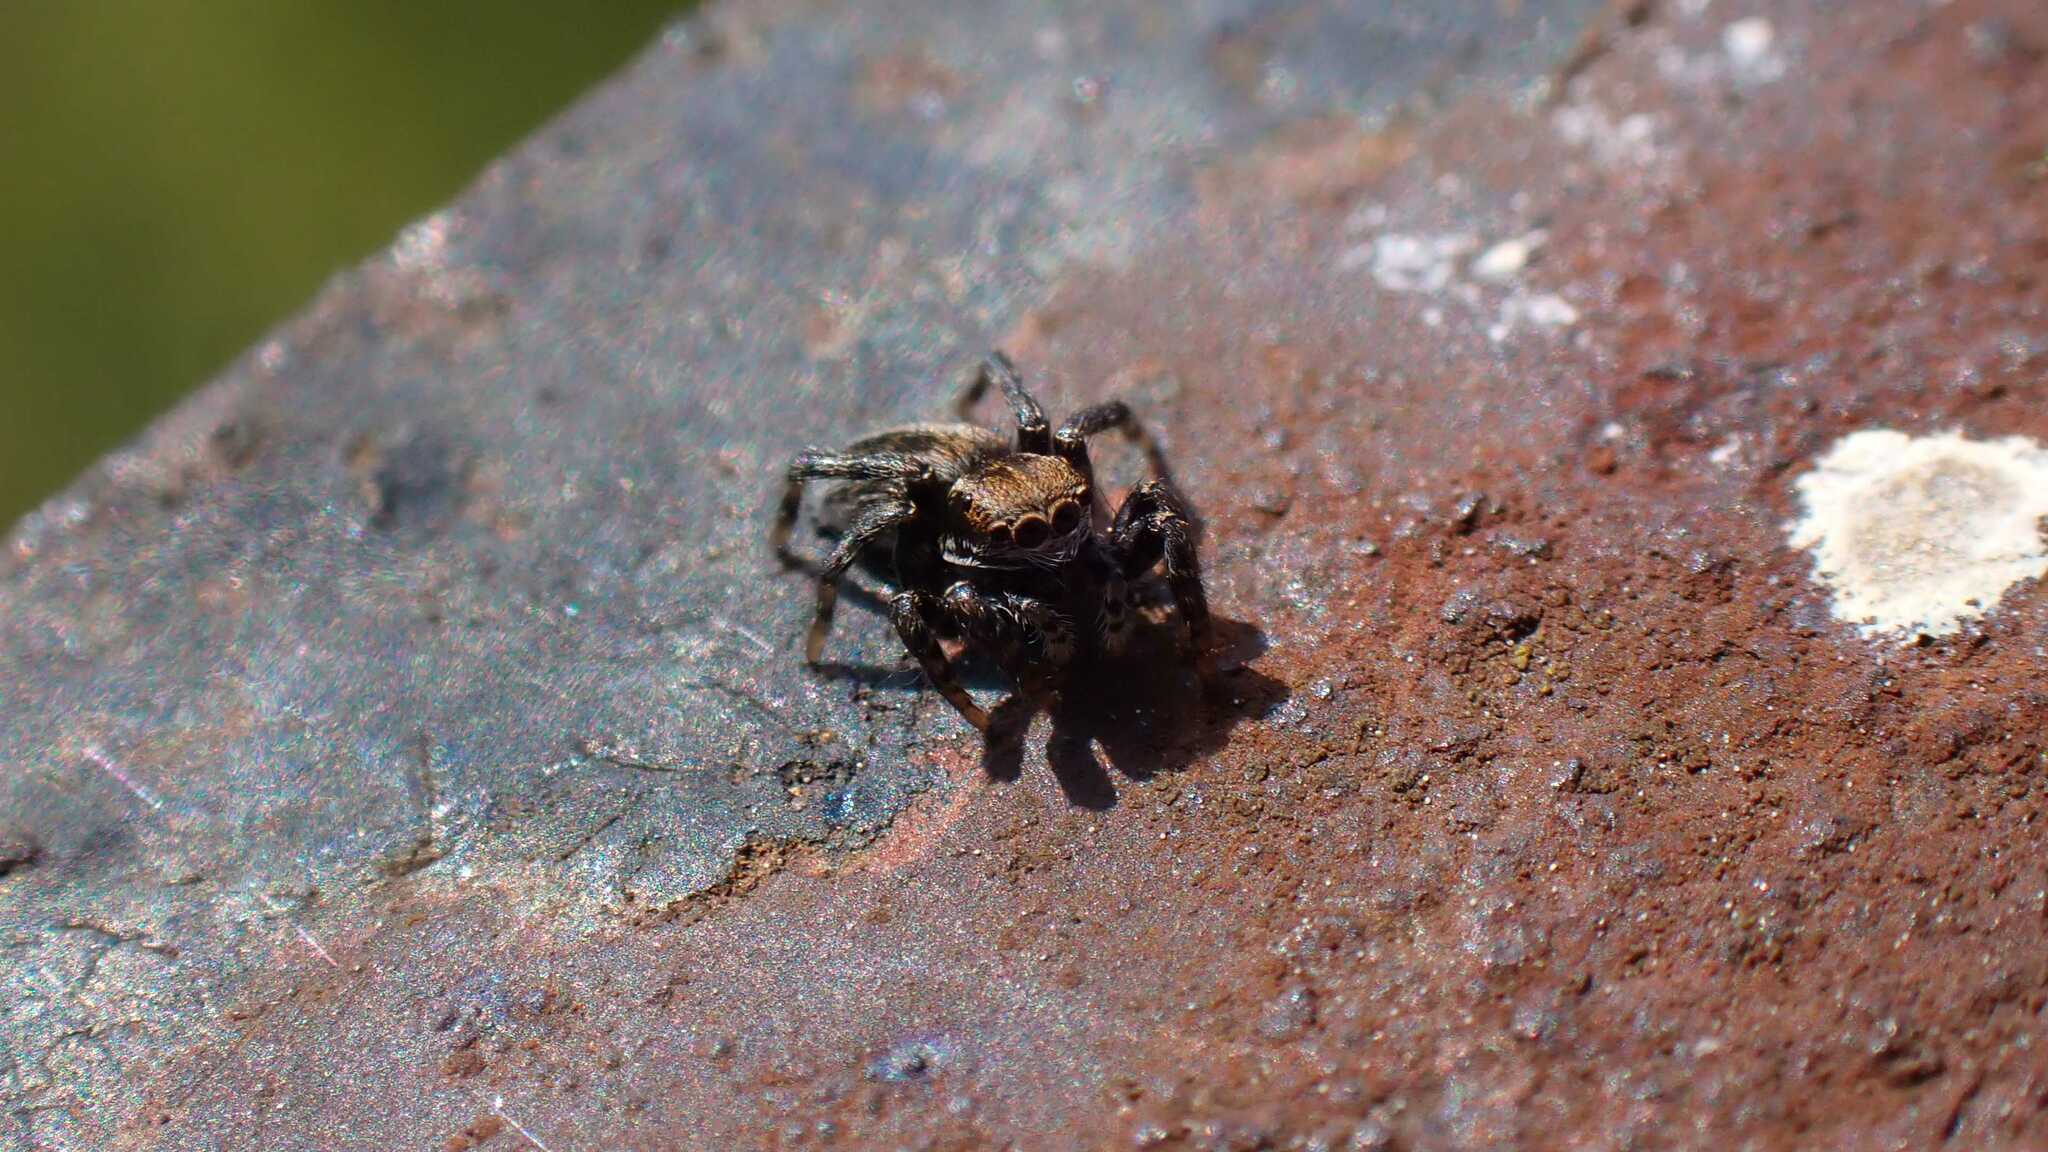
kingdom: Animalia
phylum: Arthropoda
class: Arachnida
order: Araneae
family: Salticidae
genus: Phlegra
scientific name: Phlegra fasciata
